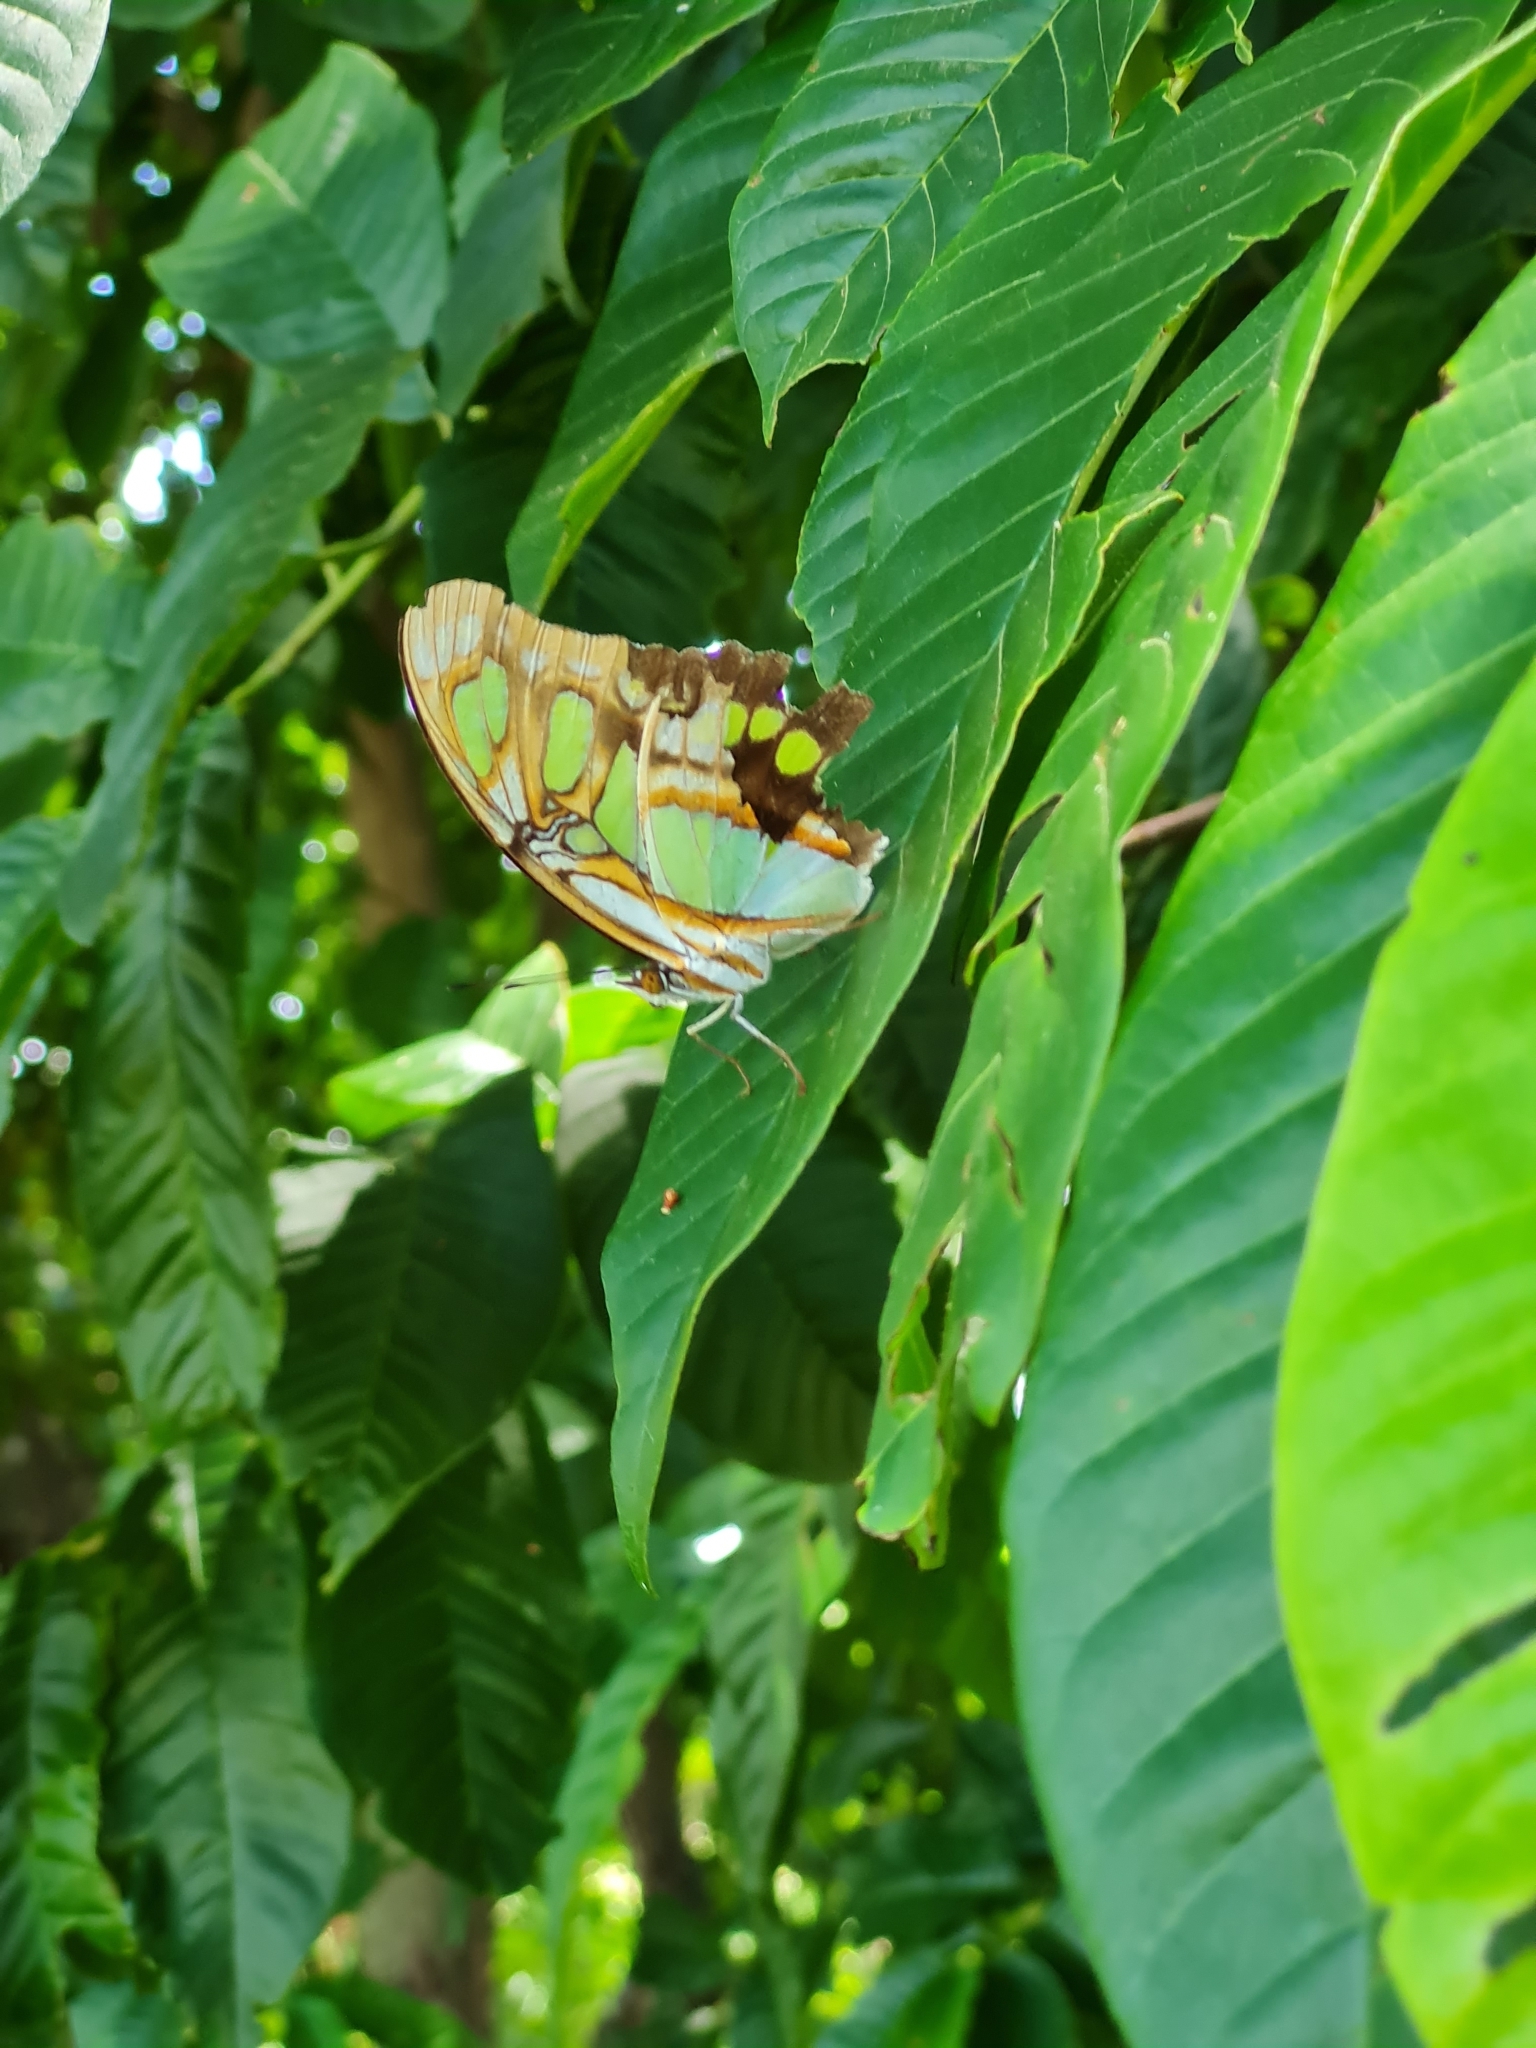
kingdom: Animalia
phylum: Arthropoda
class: Insecta
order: Lepidoptera
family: Nymphalidae
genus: Siproeta
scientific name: Siproeta stelenes
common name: Malachite
